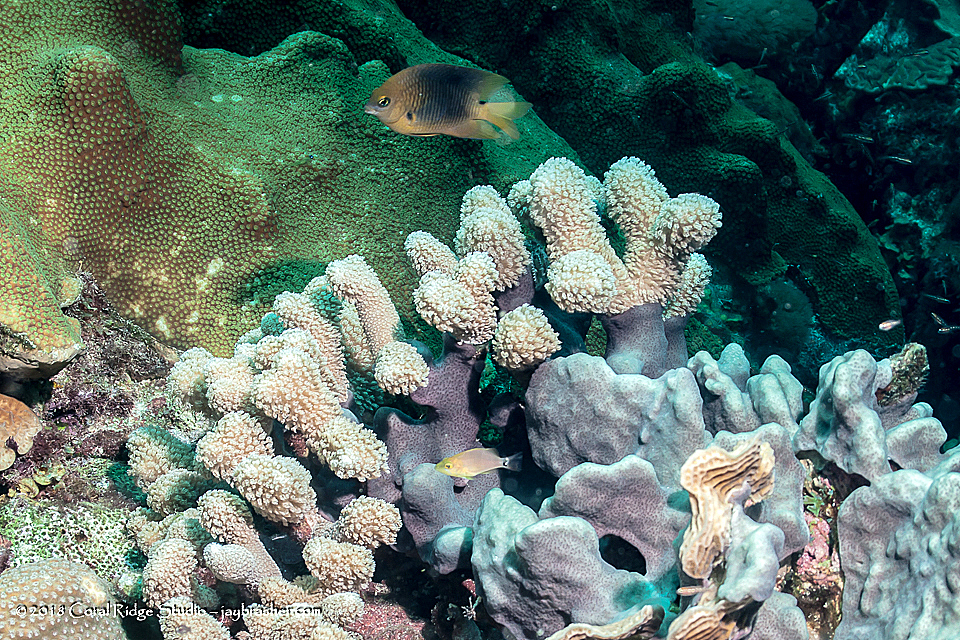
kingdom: Animalia
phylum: Cnidaria
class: Anthozoa
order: Scleractinia
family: Poritidae
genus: Porites
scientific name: Porites furcata
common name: Hump coral
